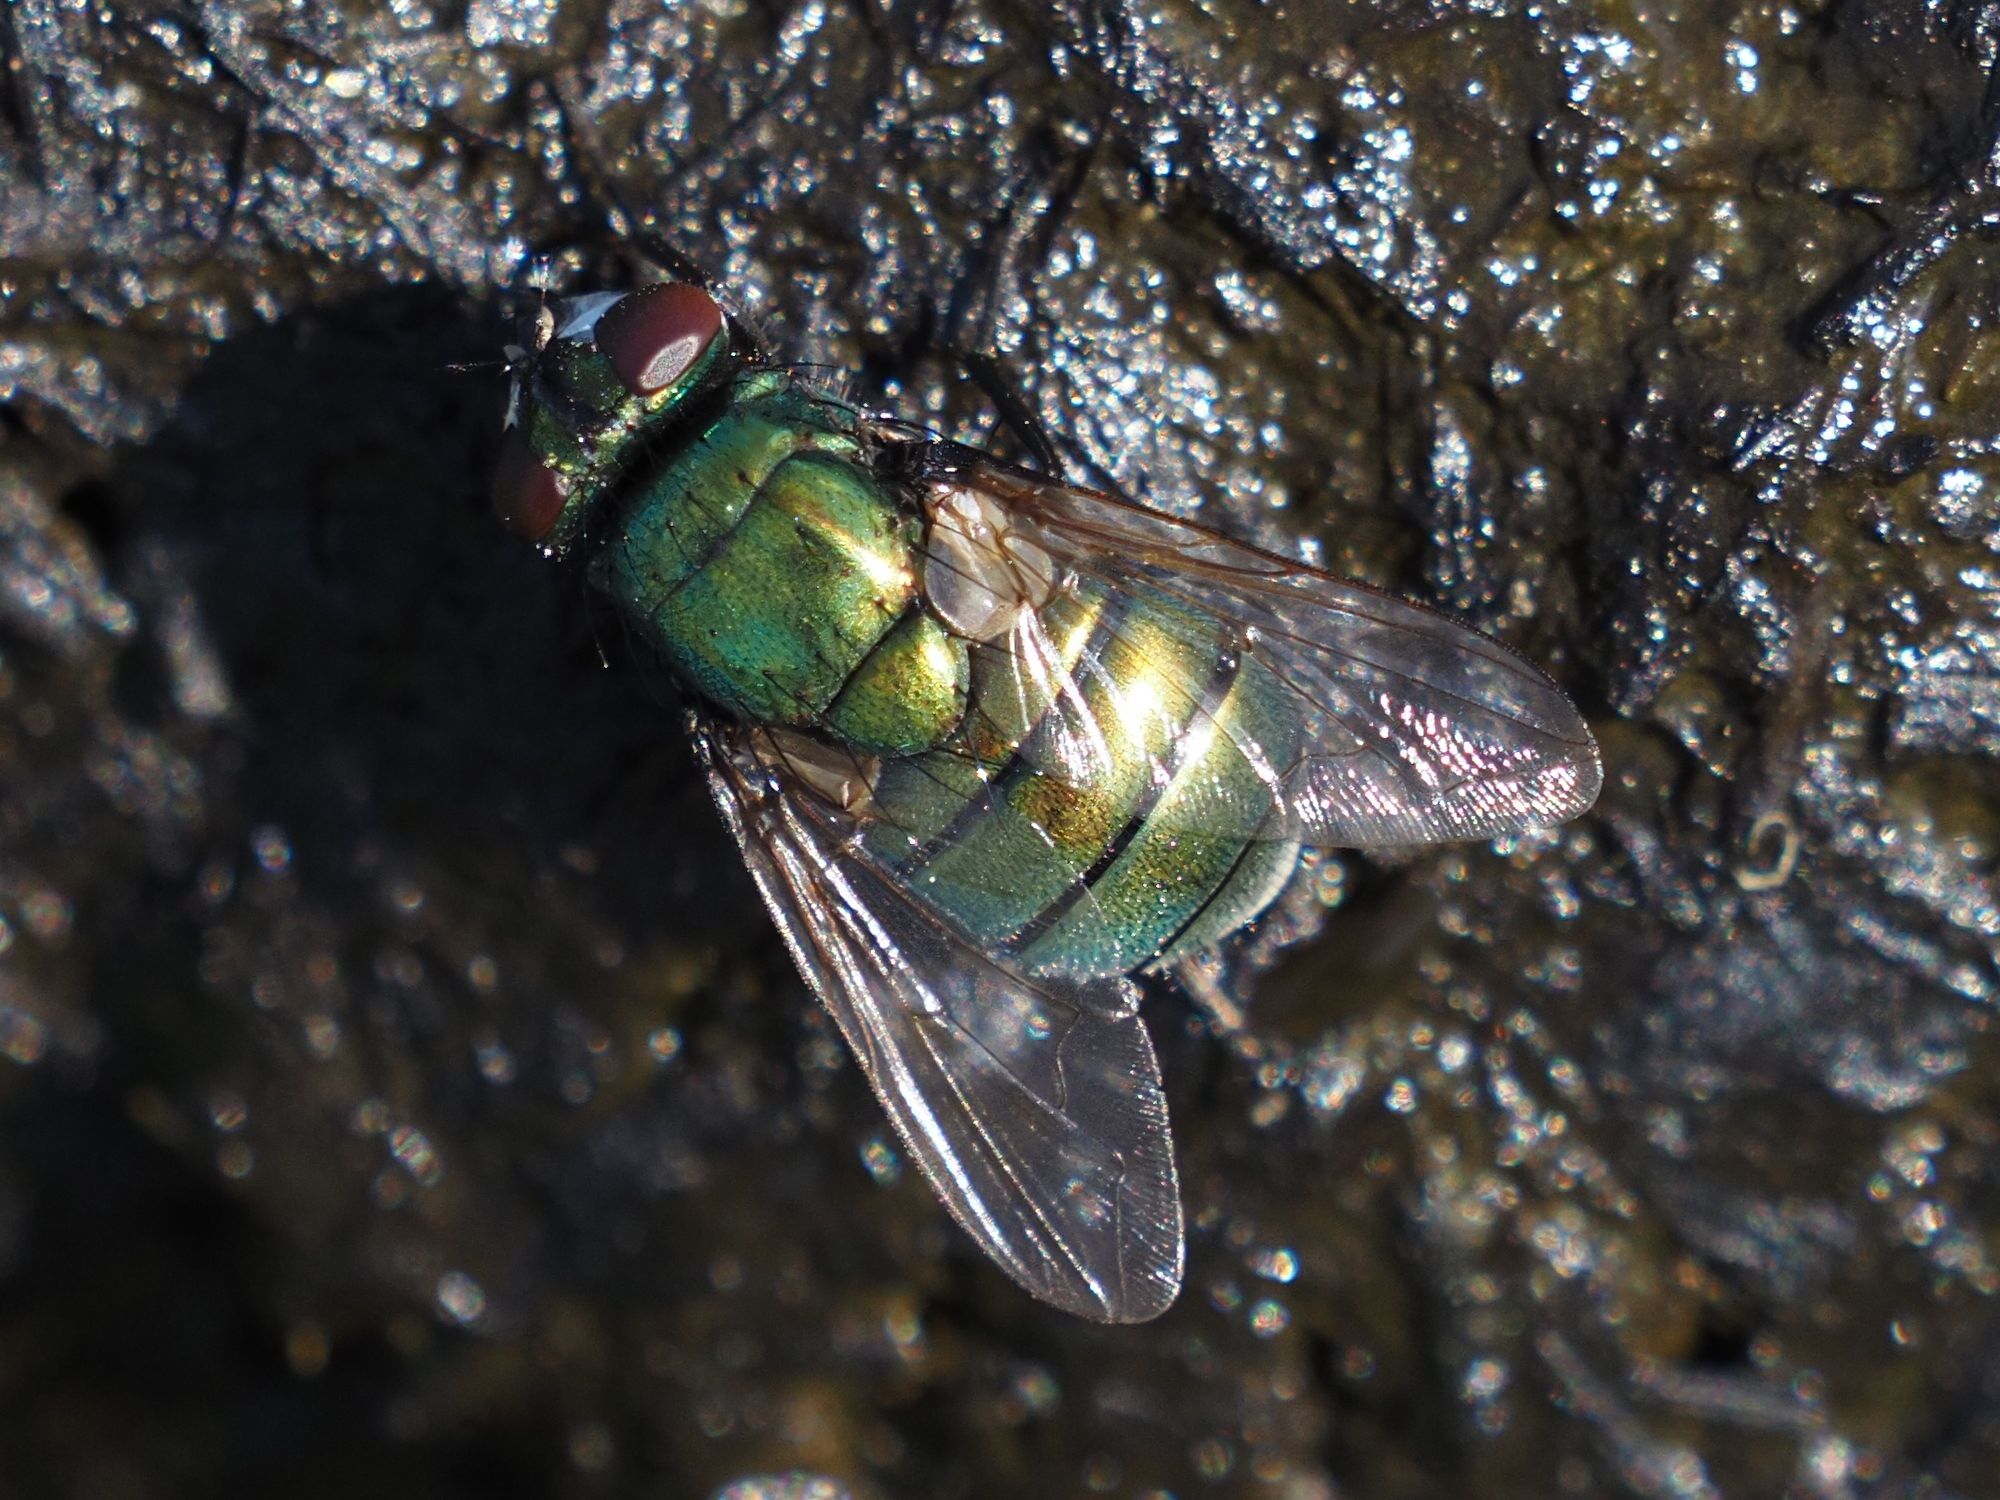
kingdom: Animalia
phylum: Arthropoda
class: Insecta
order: Diptera
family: Muscidae
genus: Neomyia
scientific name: Neomyia cornicina
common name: House fly
